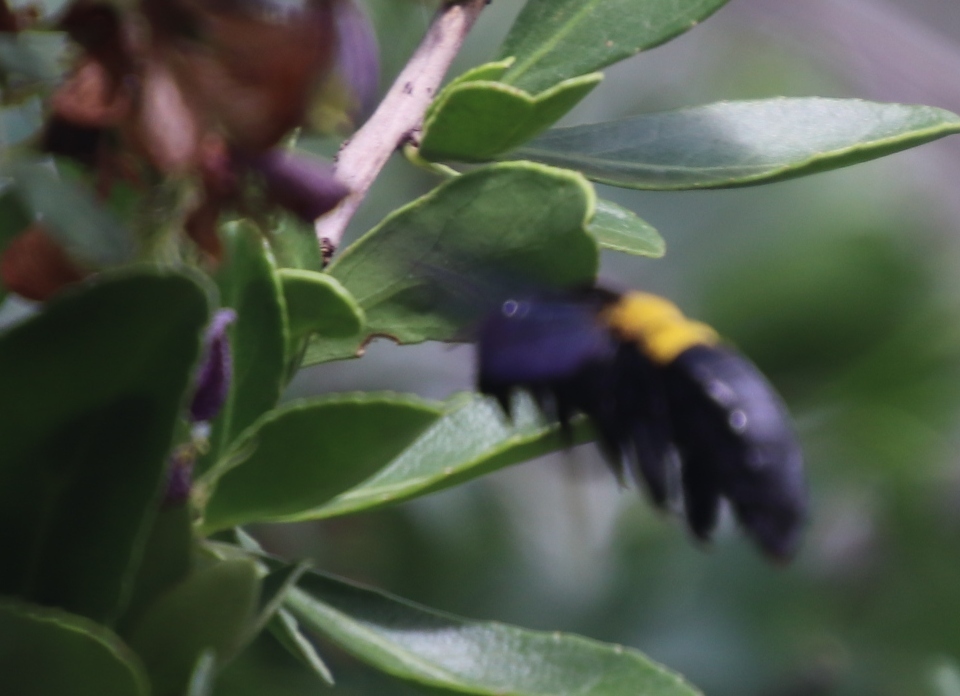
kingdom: Animalia
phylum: Arthropoda
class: Insecta
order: Hymenoptera
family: Apidae
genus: Xylocopa
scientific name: Xylocopa caffra
